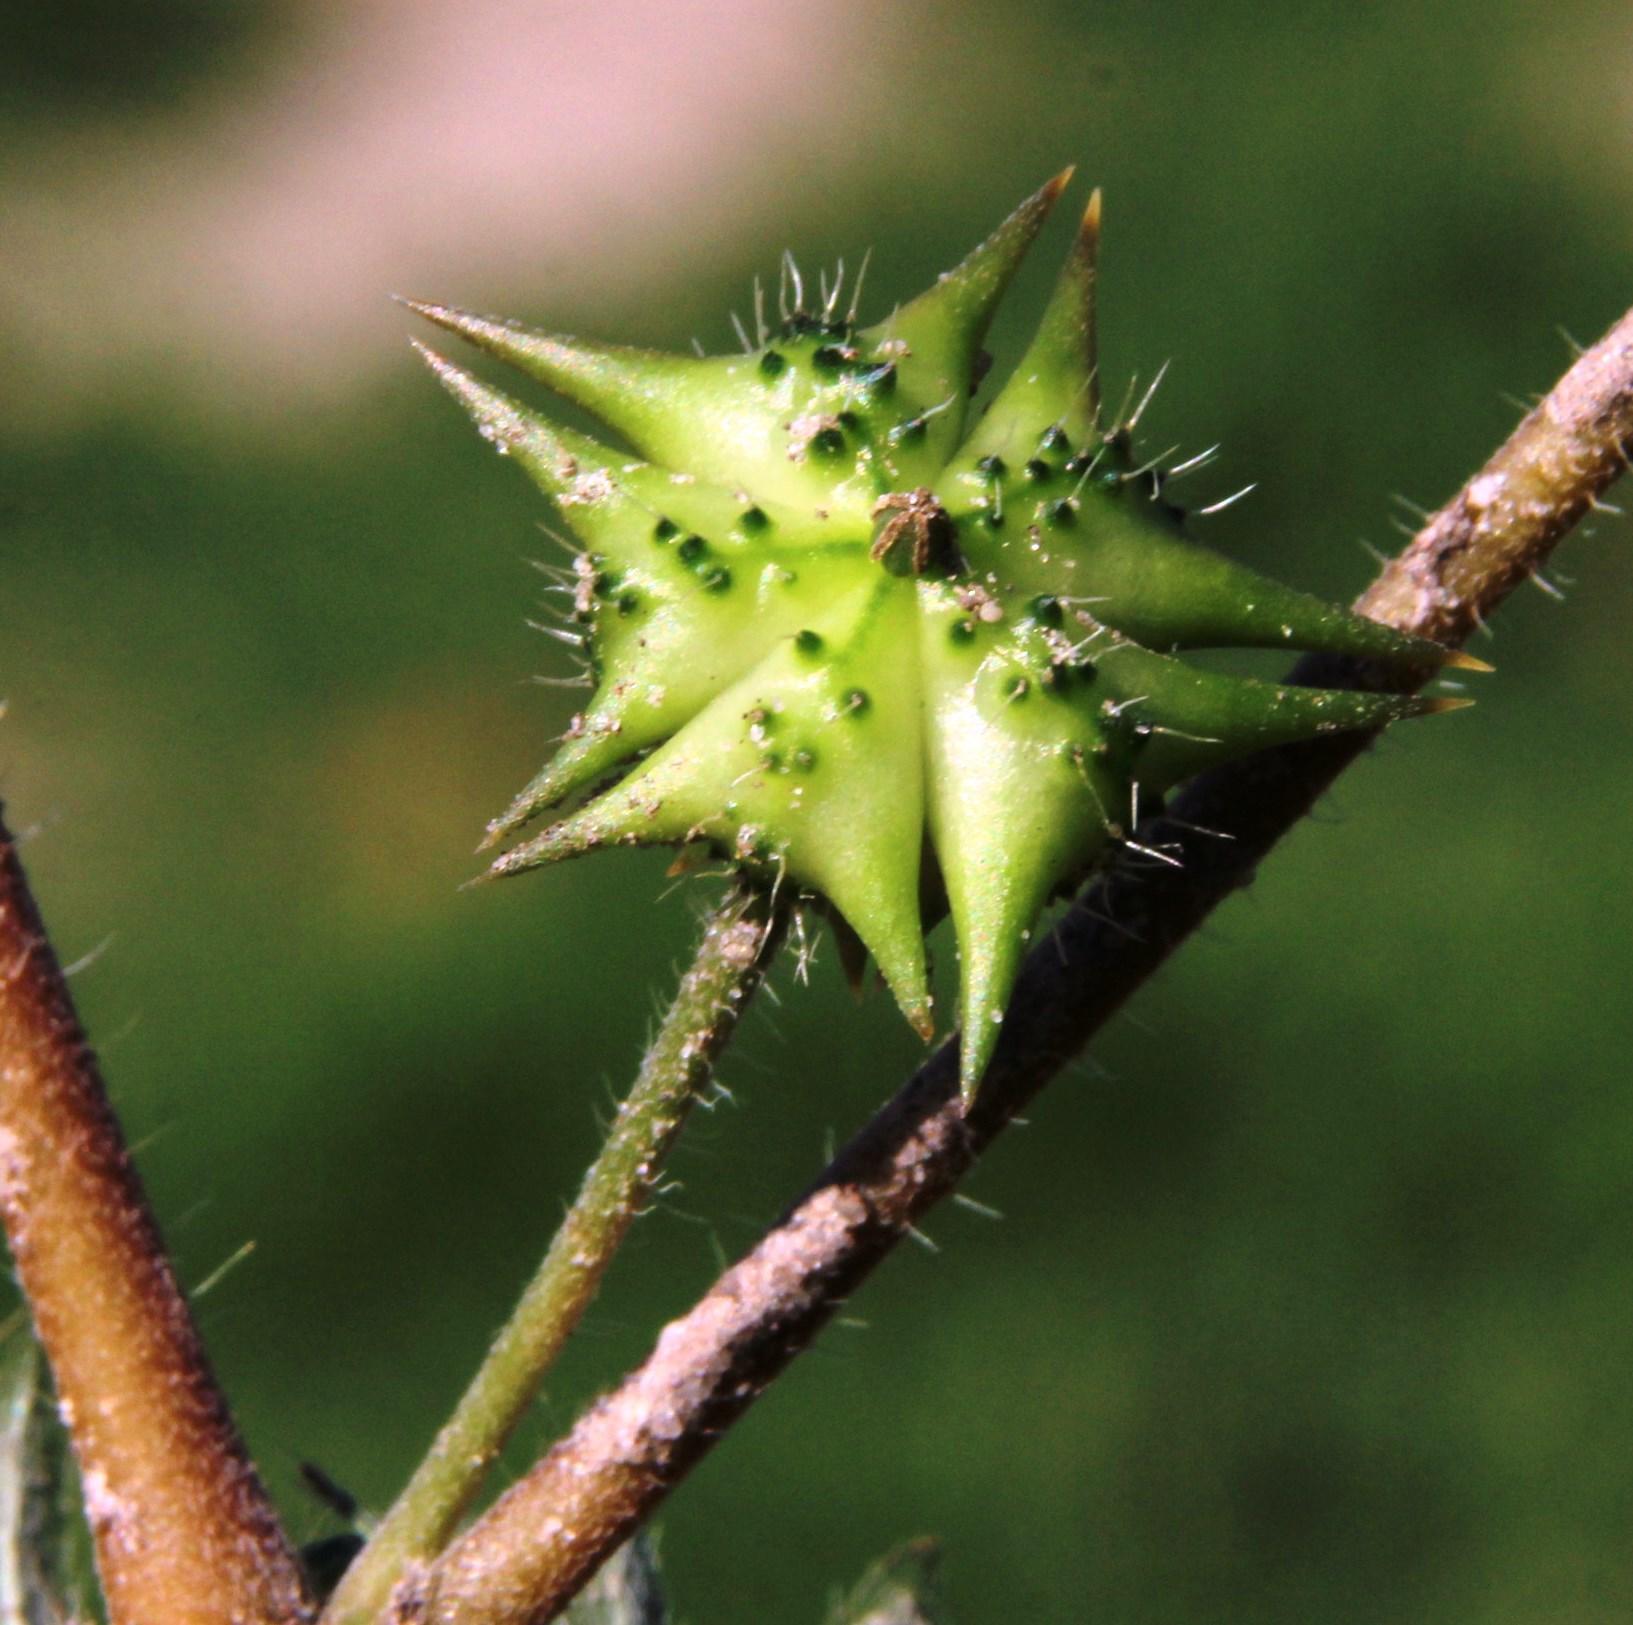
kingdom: Plantae
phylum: Tracheophyta
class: Magnoliopsida
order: Zygophyllales
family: Zygophyllaceae
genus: Tribulus
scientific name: Tribulus terrestris
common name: Puncturevine
